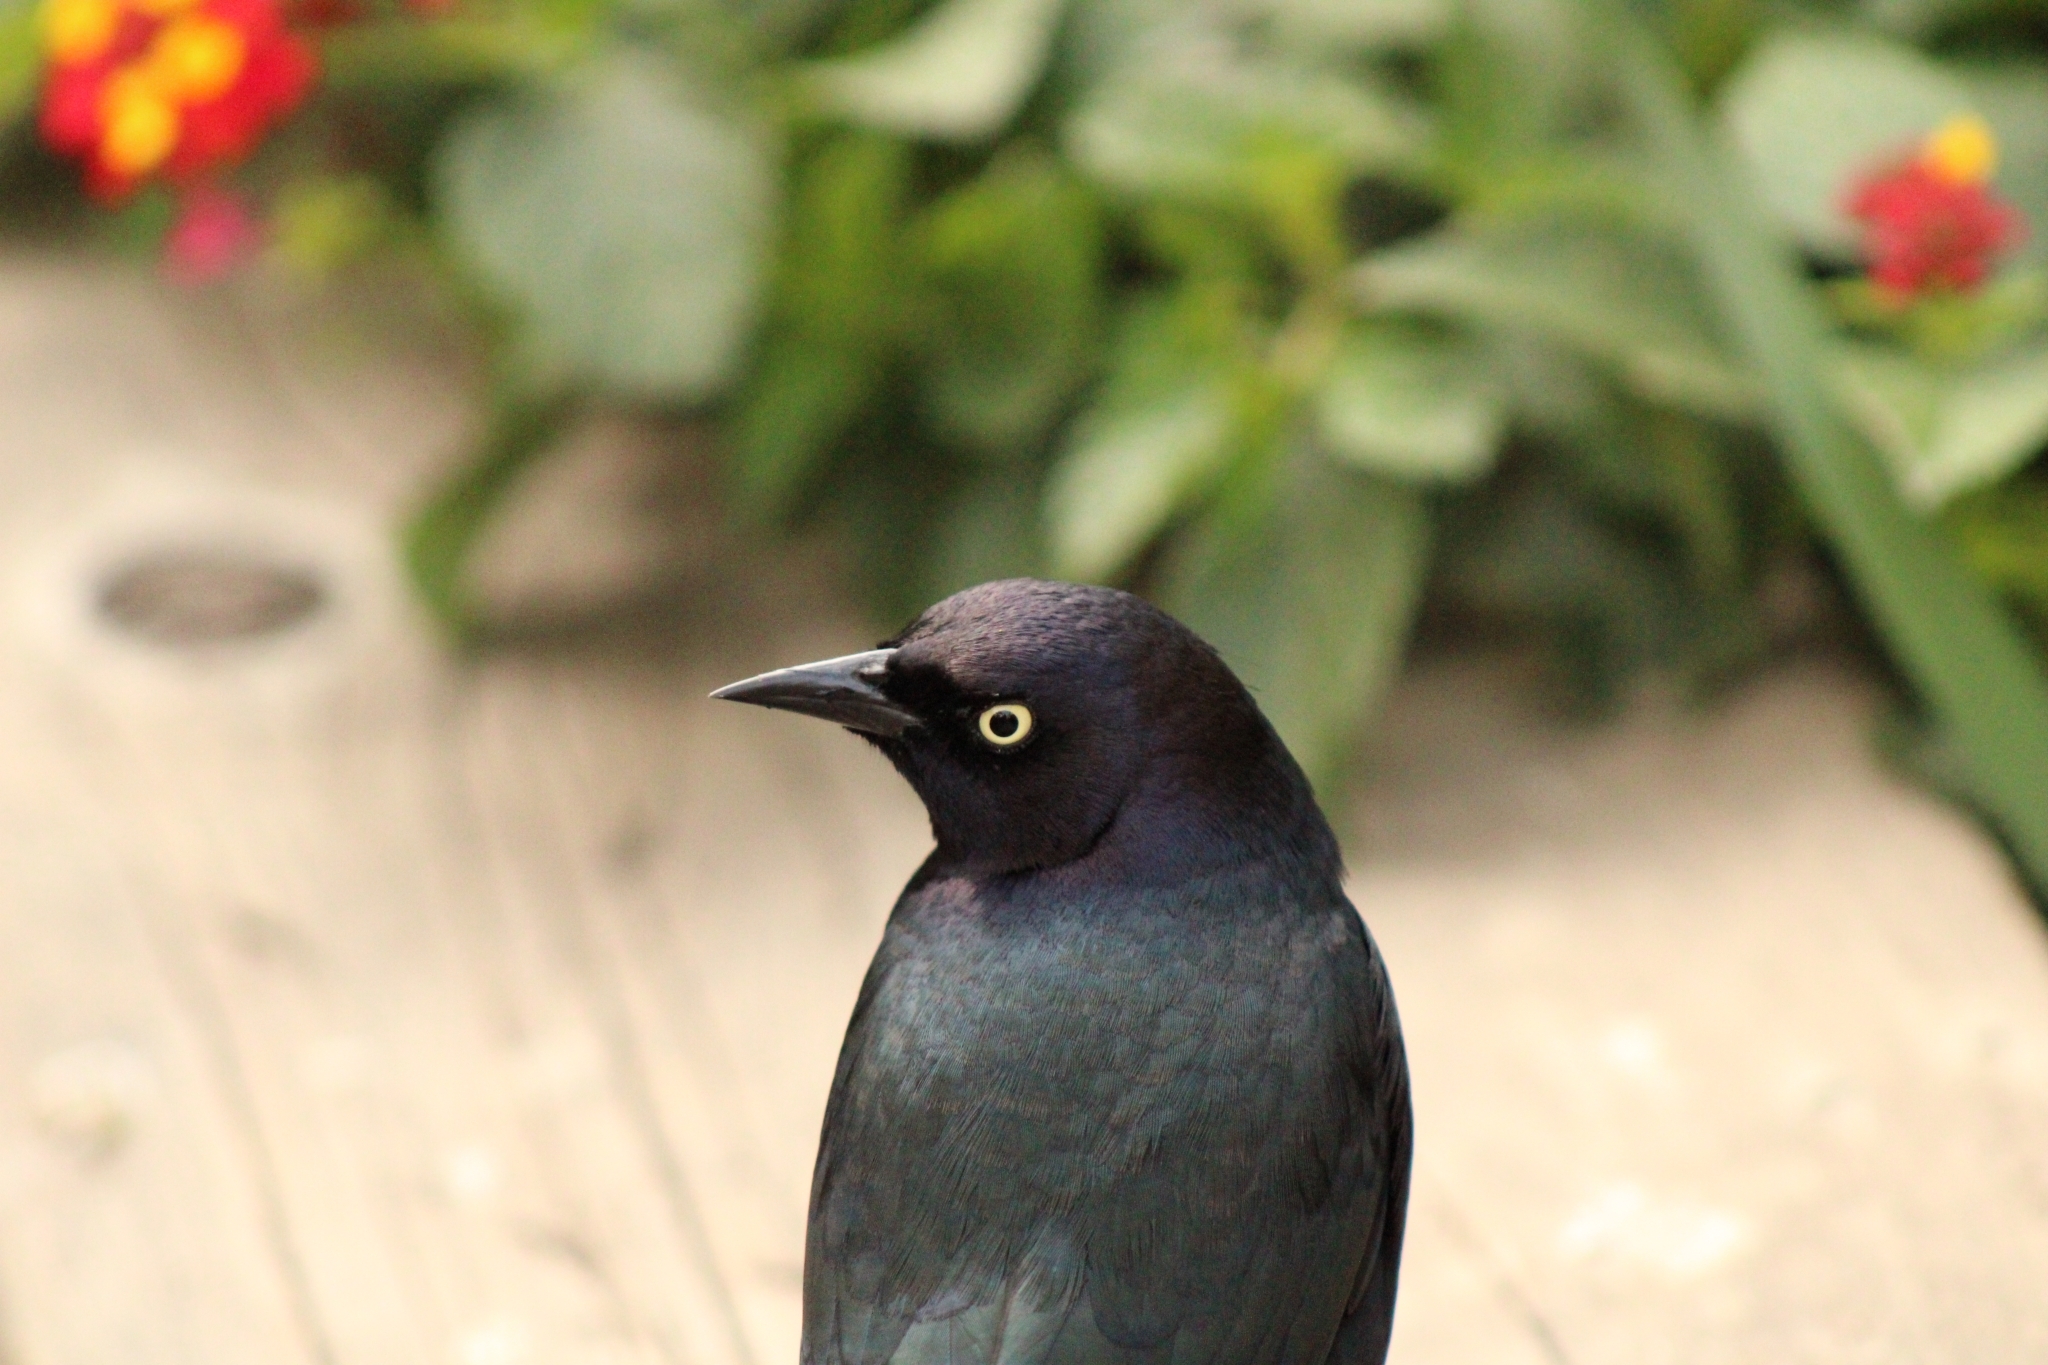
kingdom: Animalia
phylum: Chordata
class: Aves
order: Passeriformes
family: Icteridae
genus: Euphagus
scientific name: Euphagus cyanocephalus
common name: Brewer's blackbird
